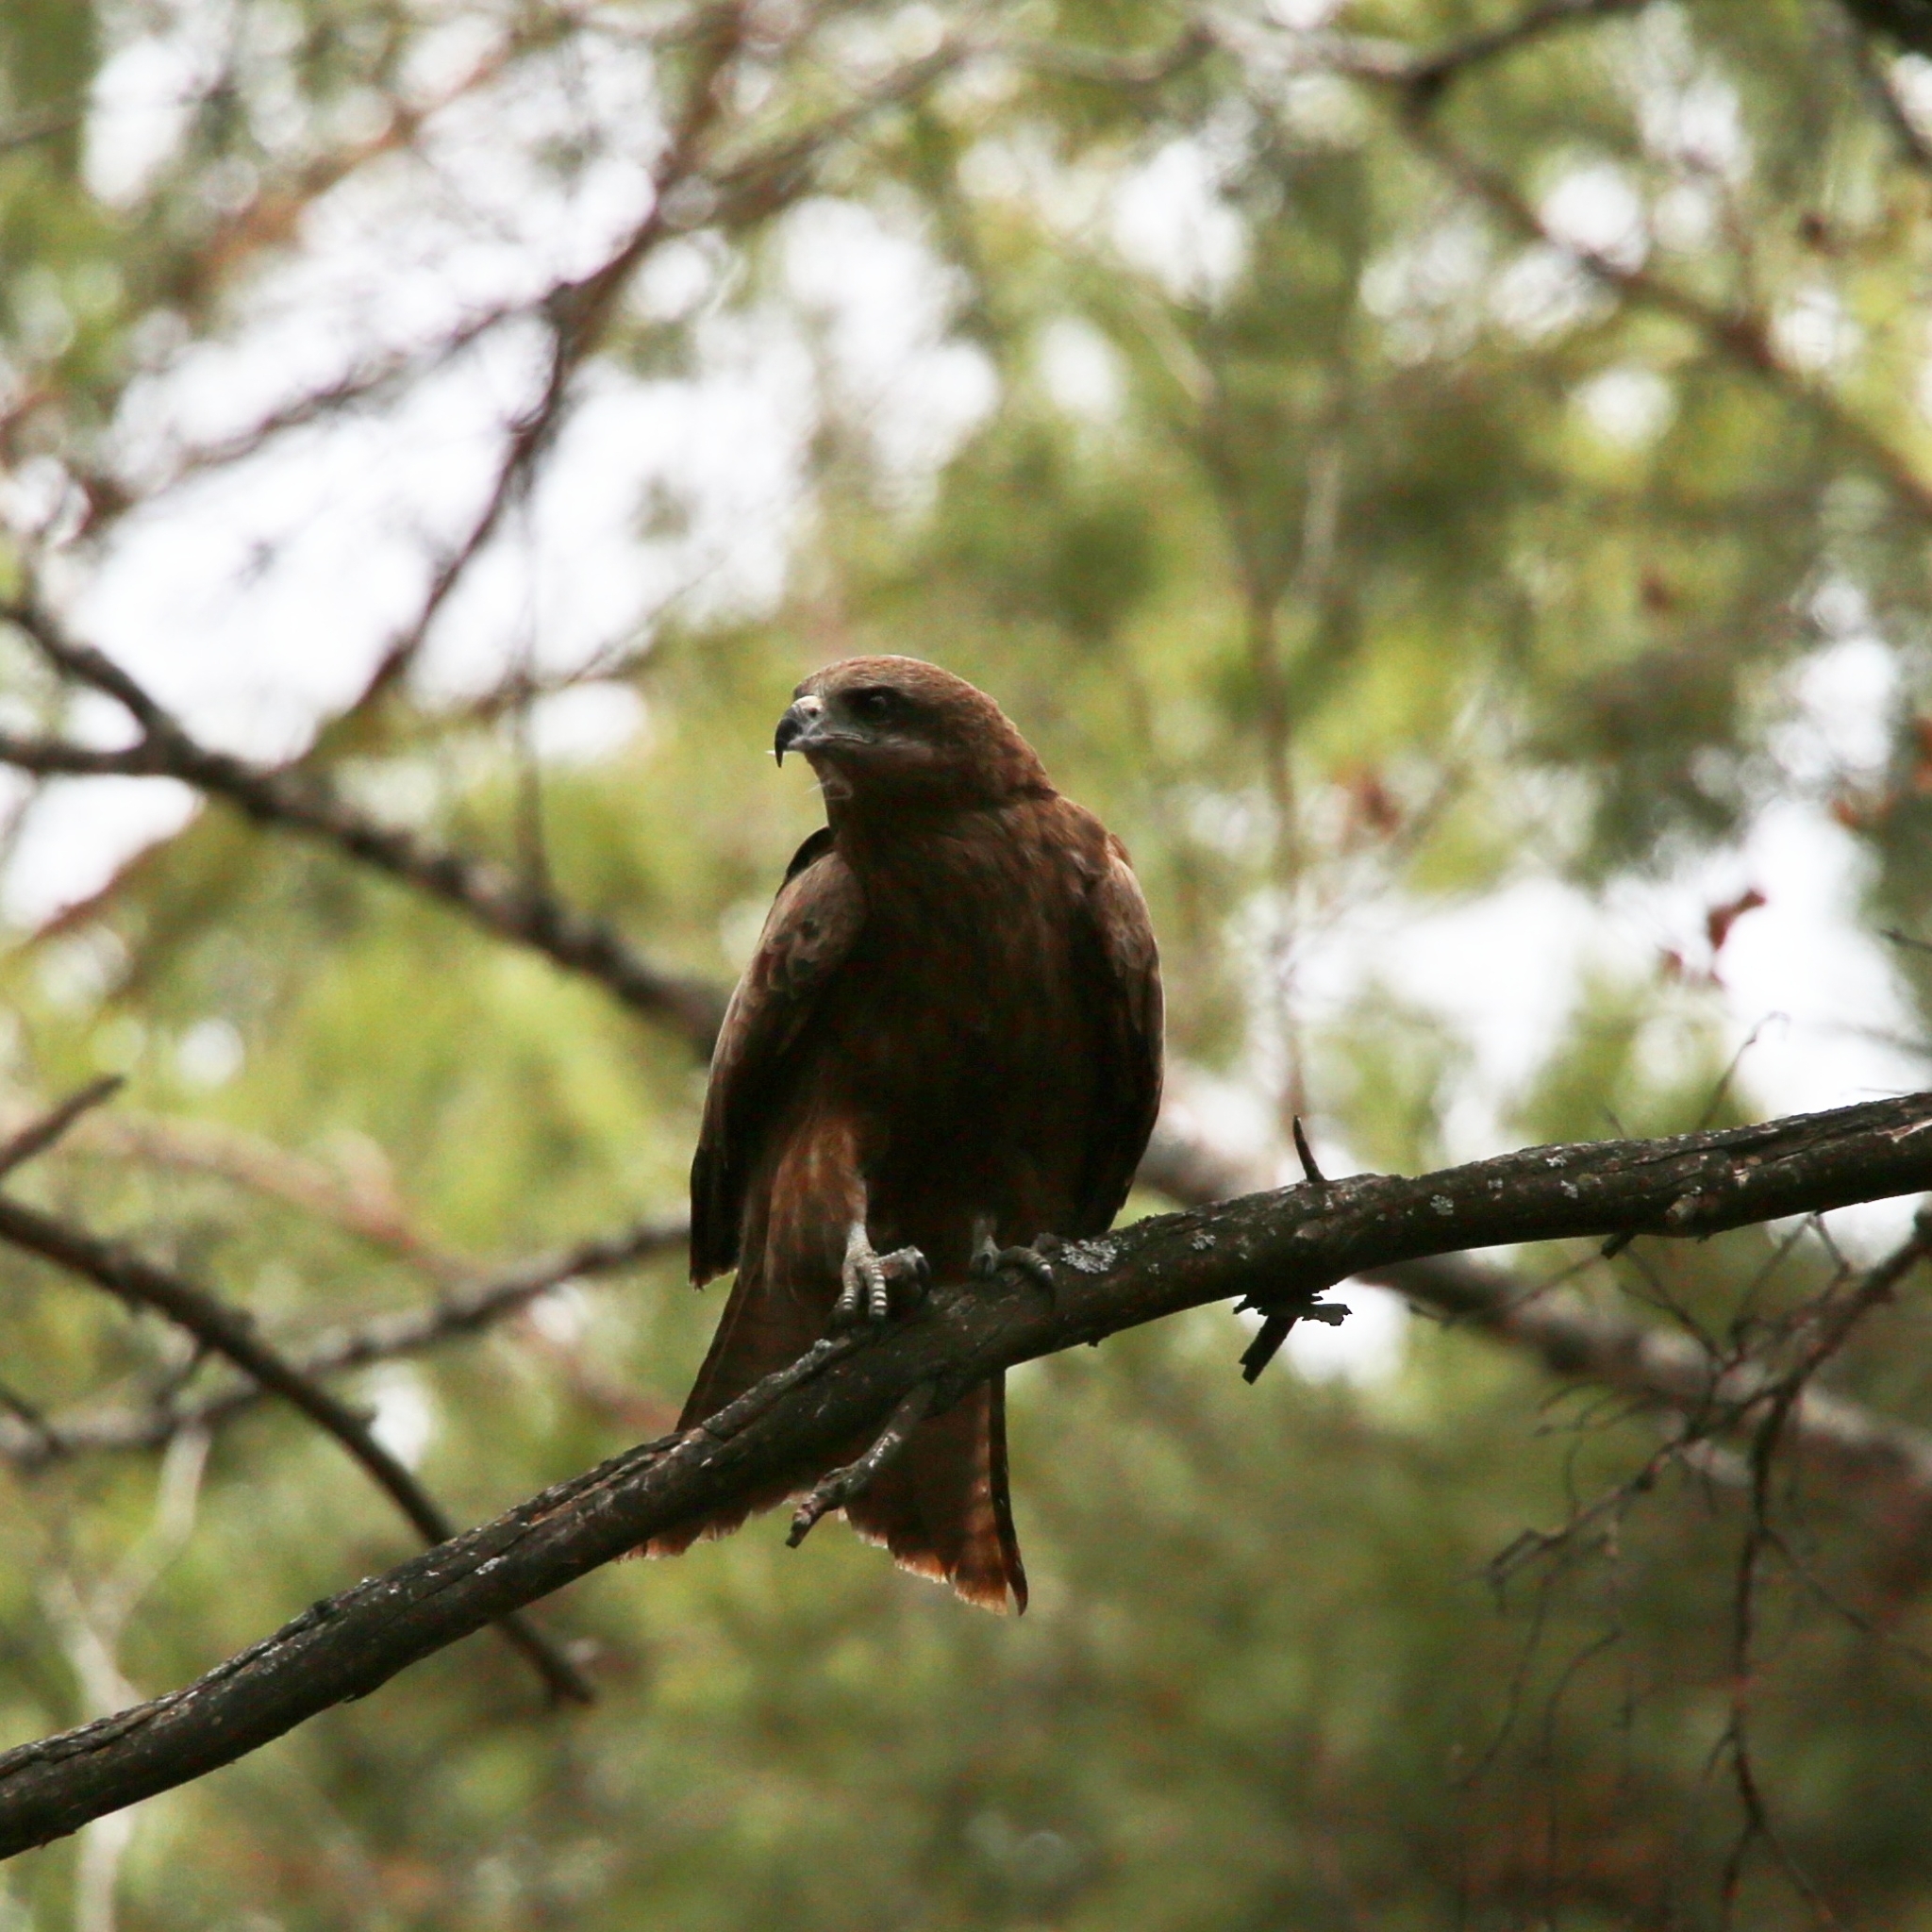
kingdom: Animalia
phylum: Chordata
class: Aves
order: Accipitriformes
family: Accipitridae
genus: Milvus
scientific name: Milvus migrans
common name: Black kite
